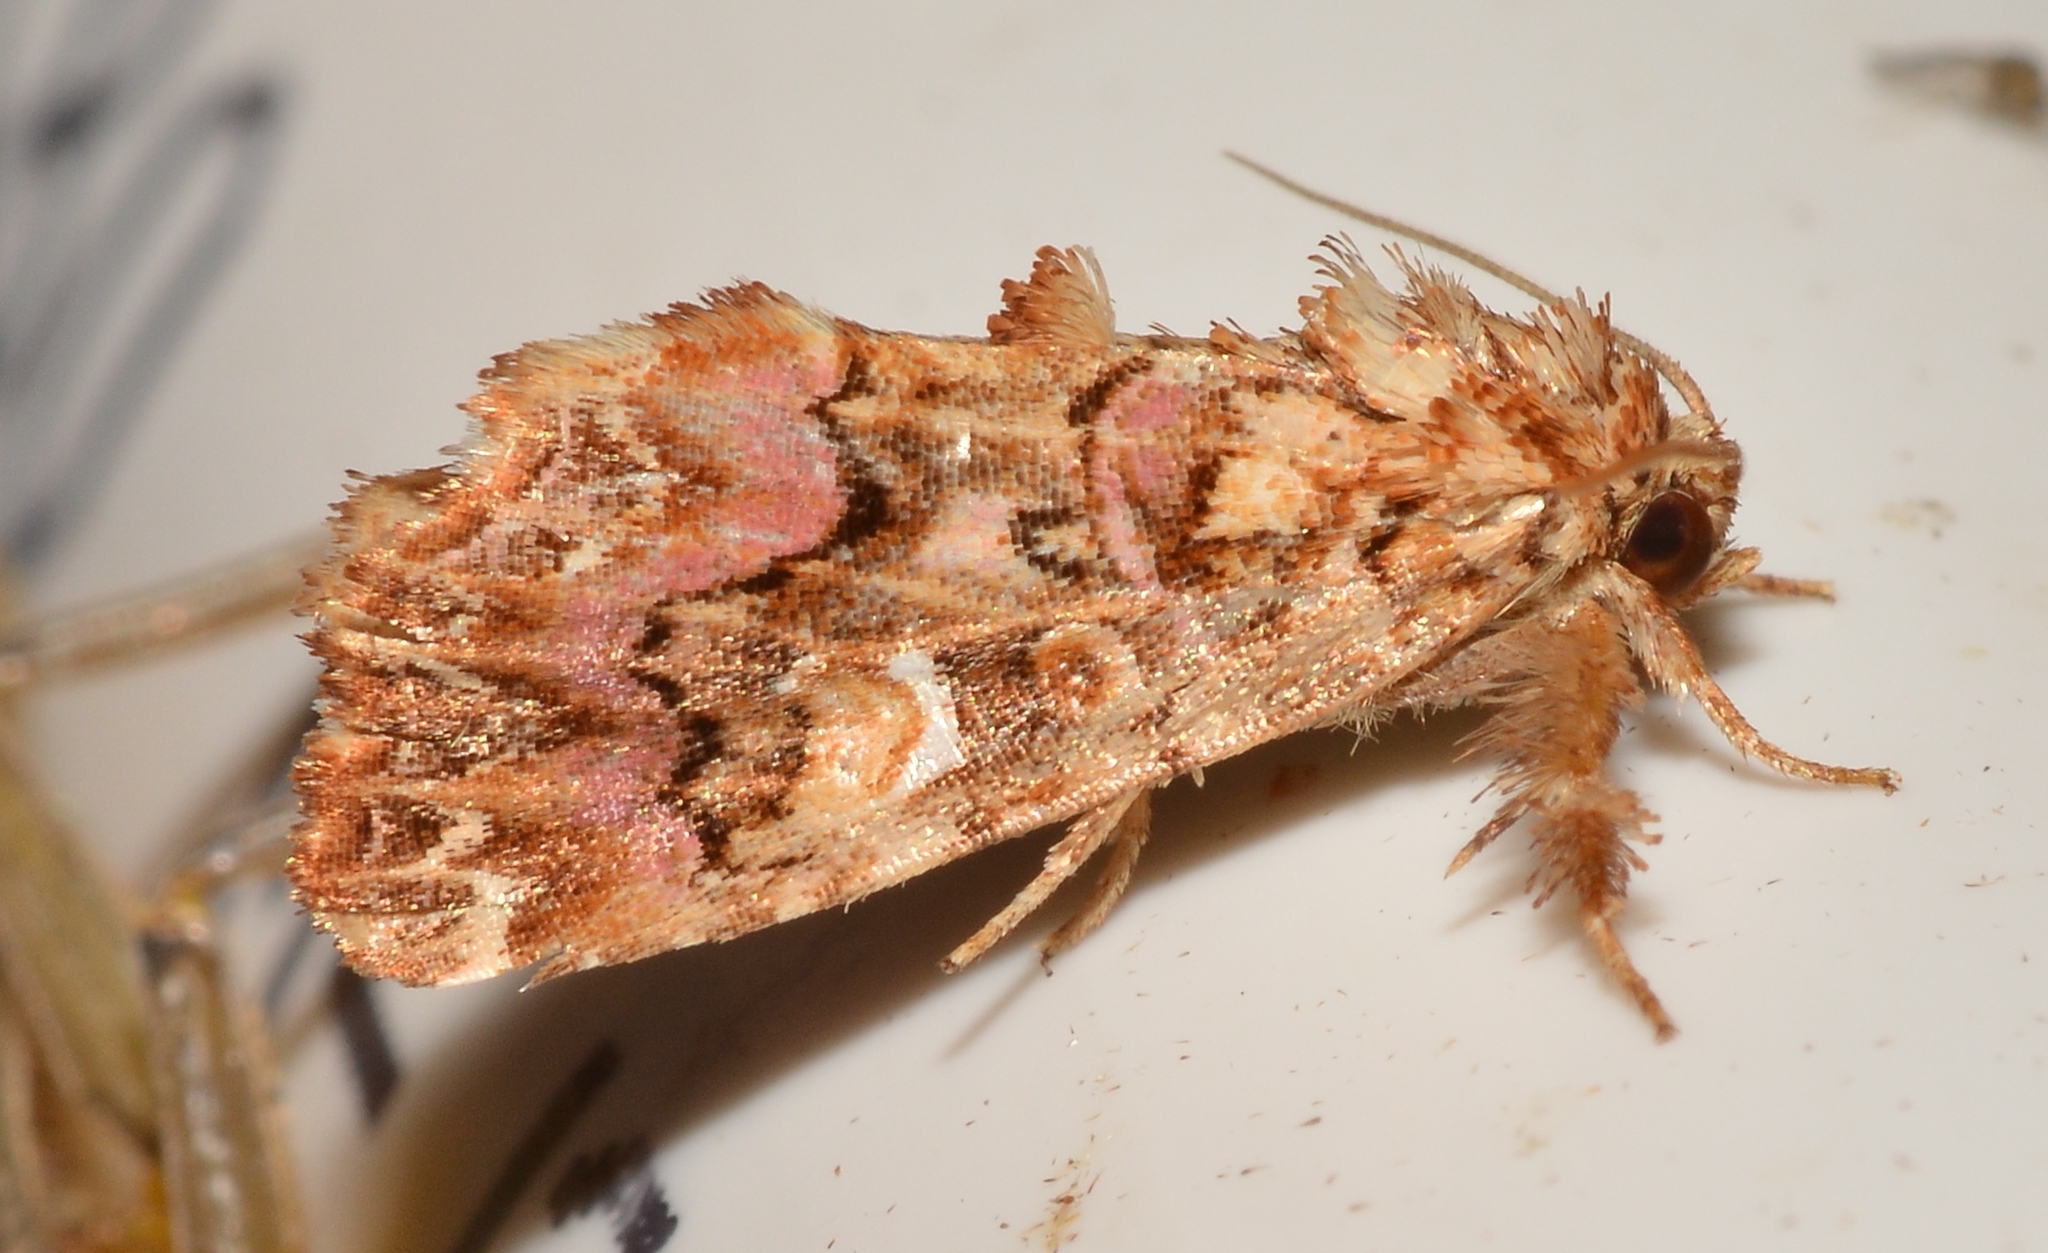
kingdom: Animalia
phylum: Arthropoda
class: Insecta
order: Lepidoptera
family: Noctuidae
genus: Callopistria
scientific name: Callopistria mollissima
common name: Pink-shaded fern moth
